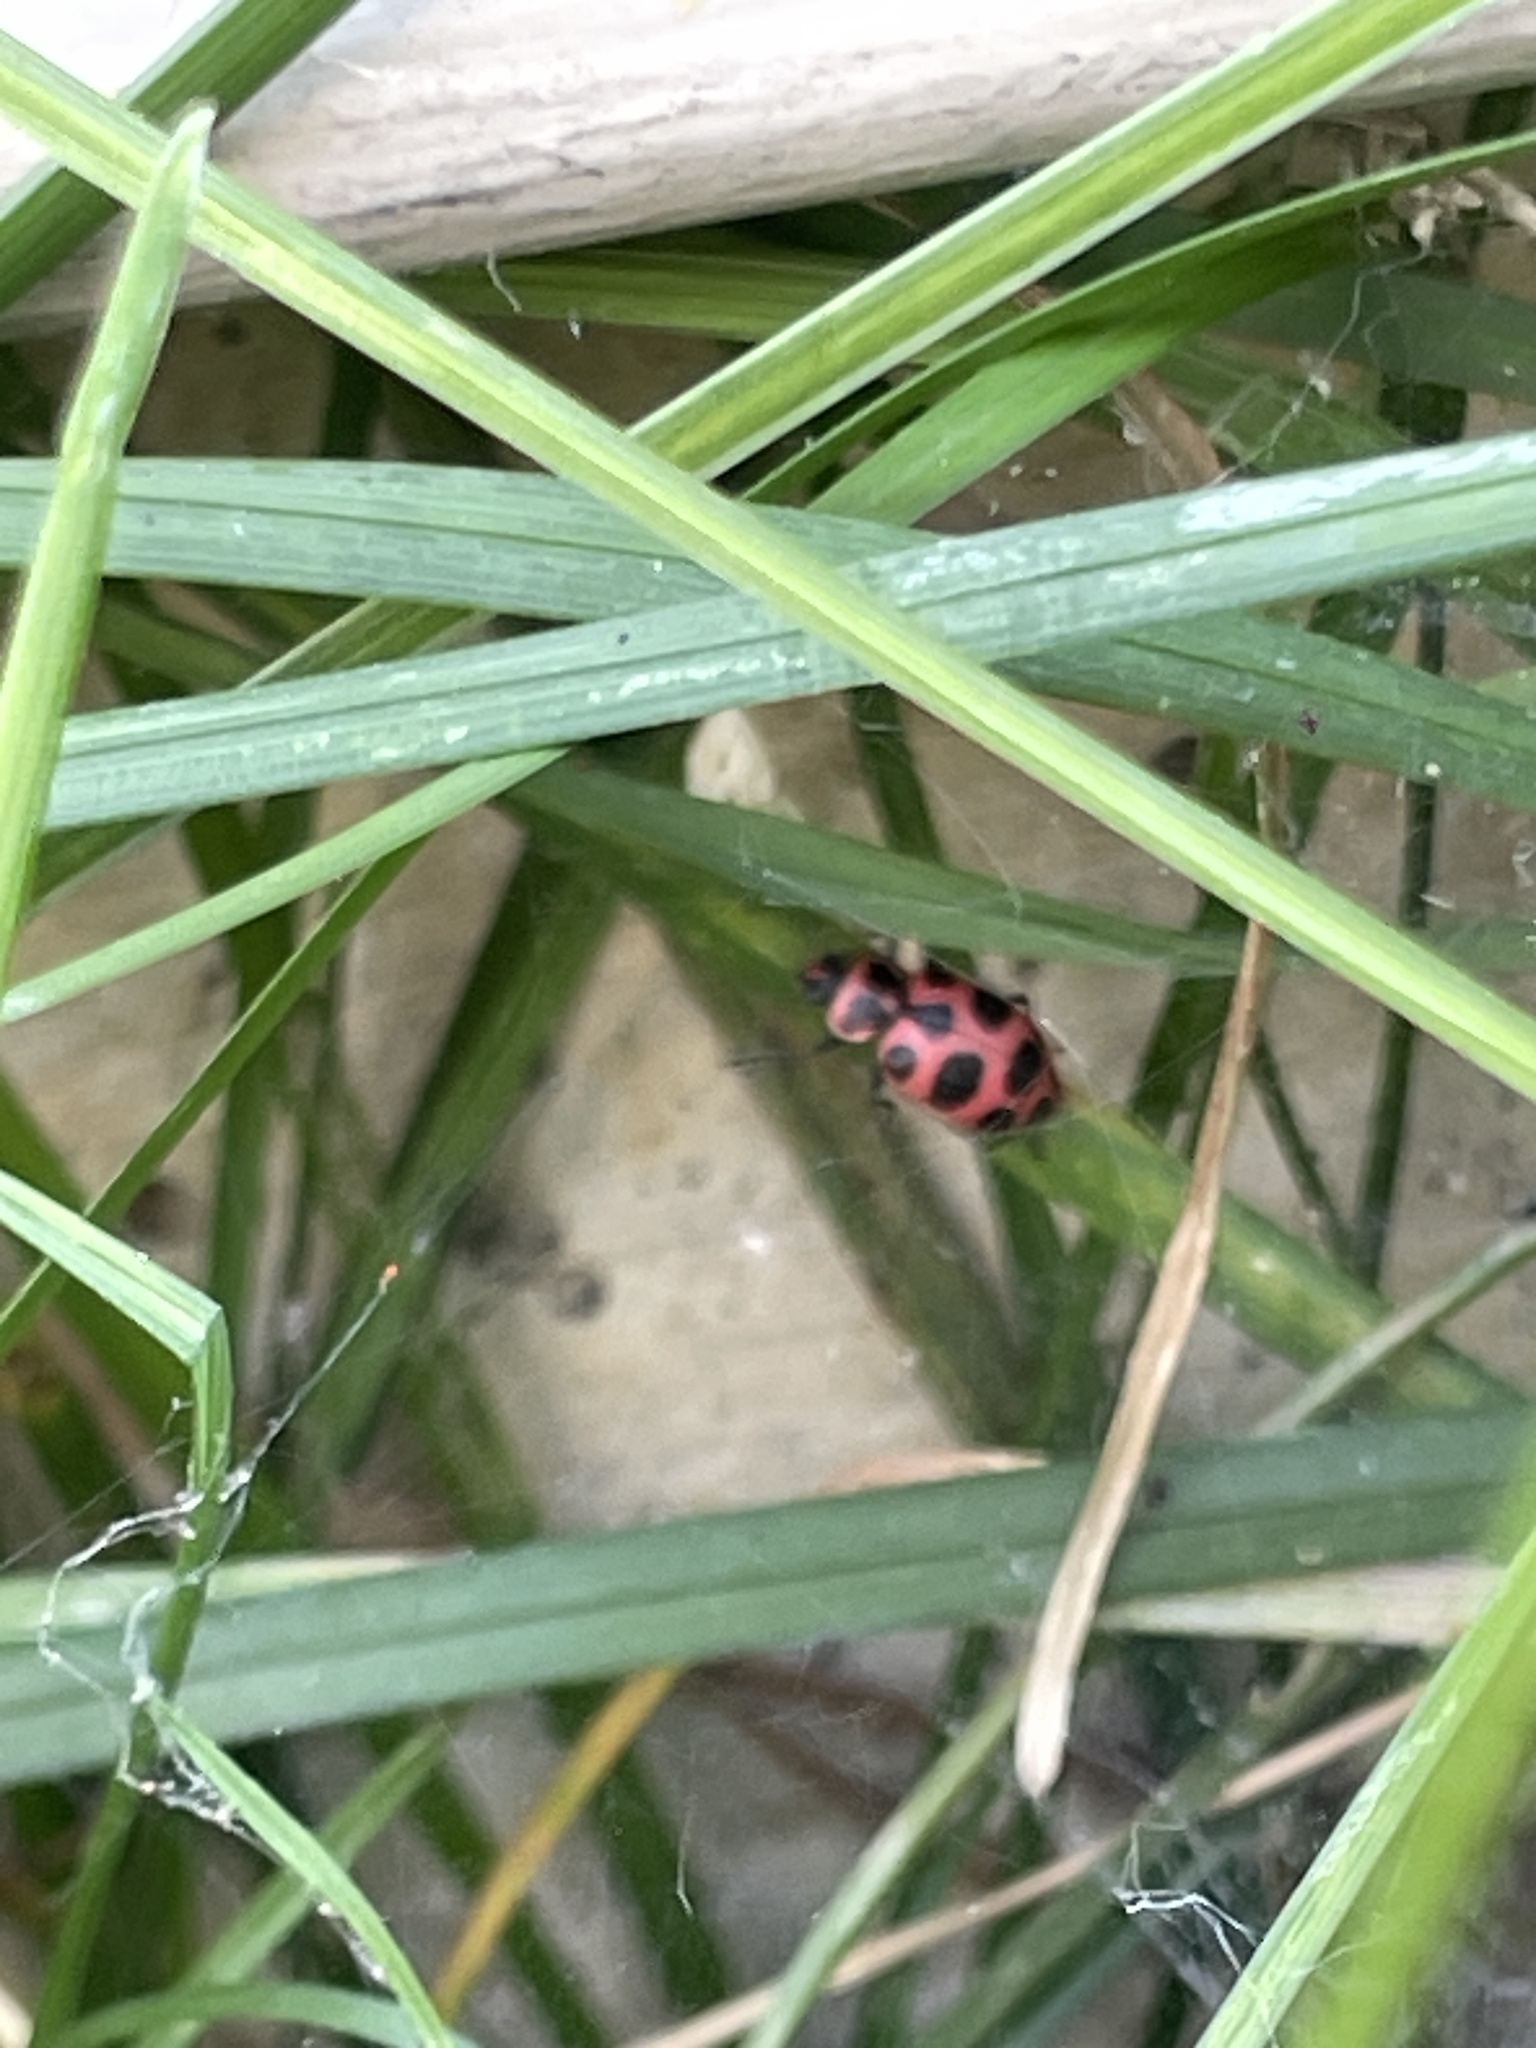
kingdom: Animalia
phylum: Arthropoda
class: Insecta
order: Coleoptera
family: Coccinellidae
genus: Coleomegilla
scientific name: Coleomegilla maculata
